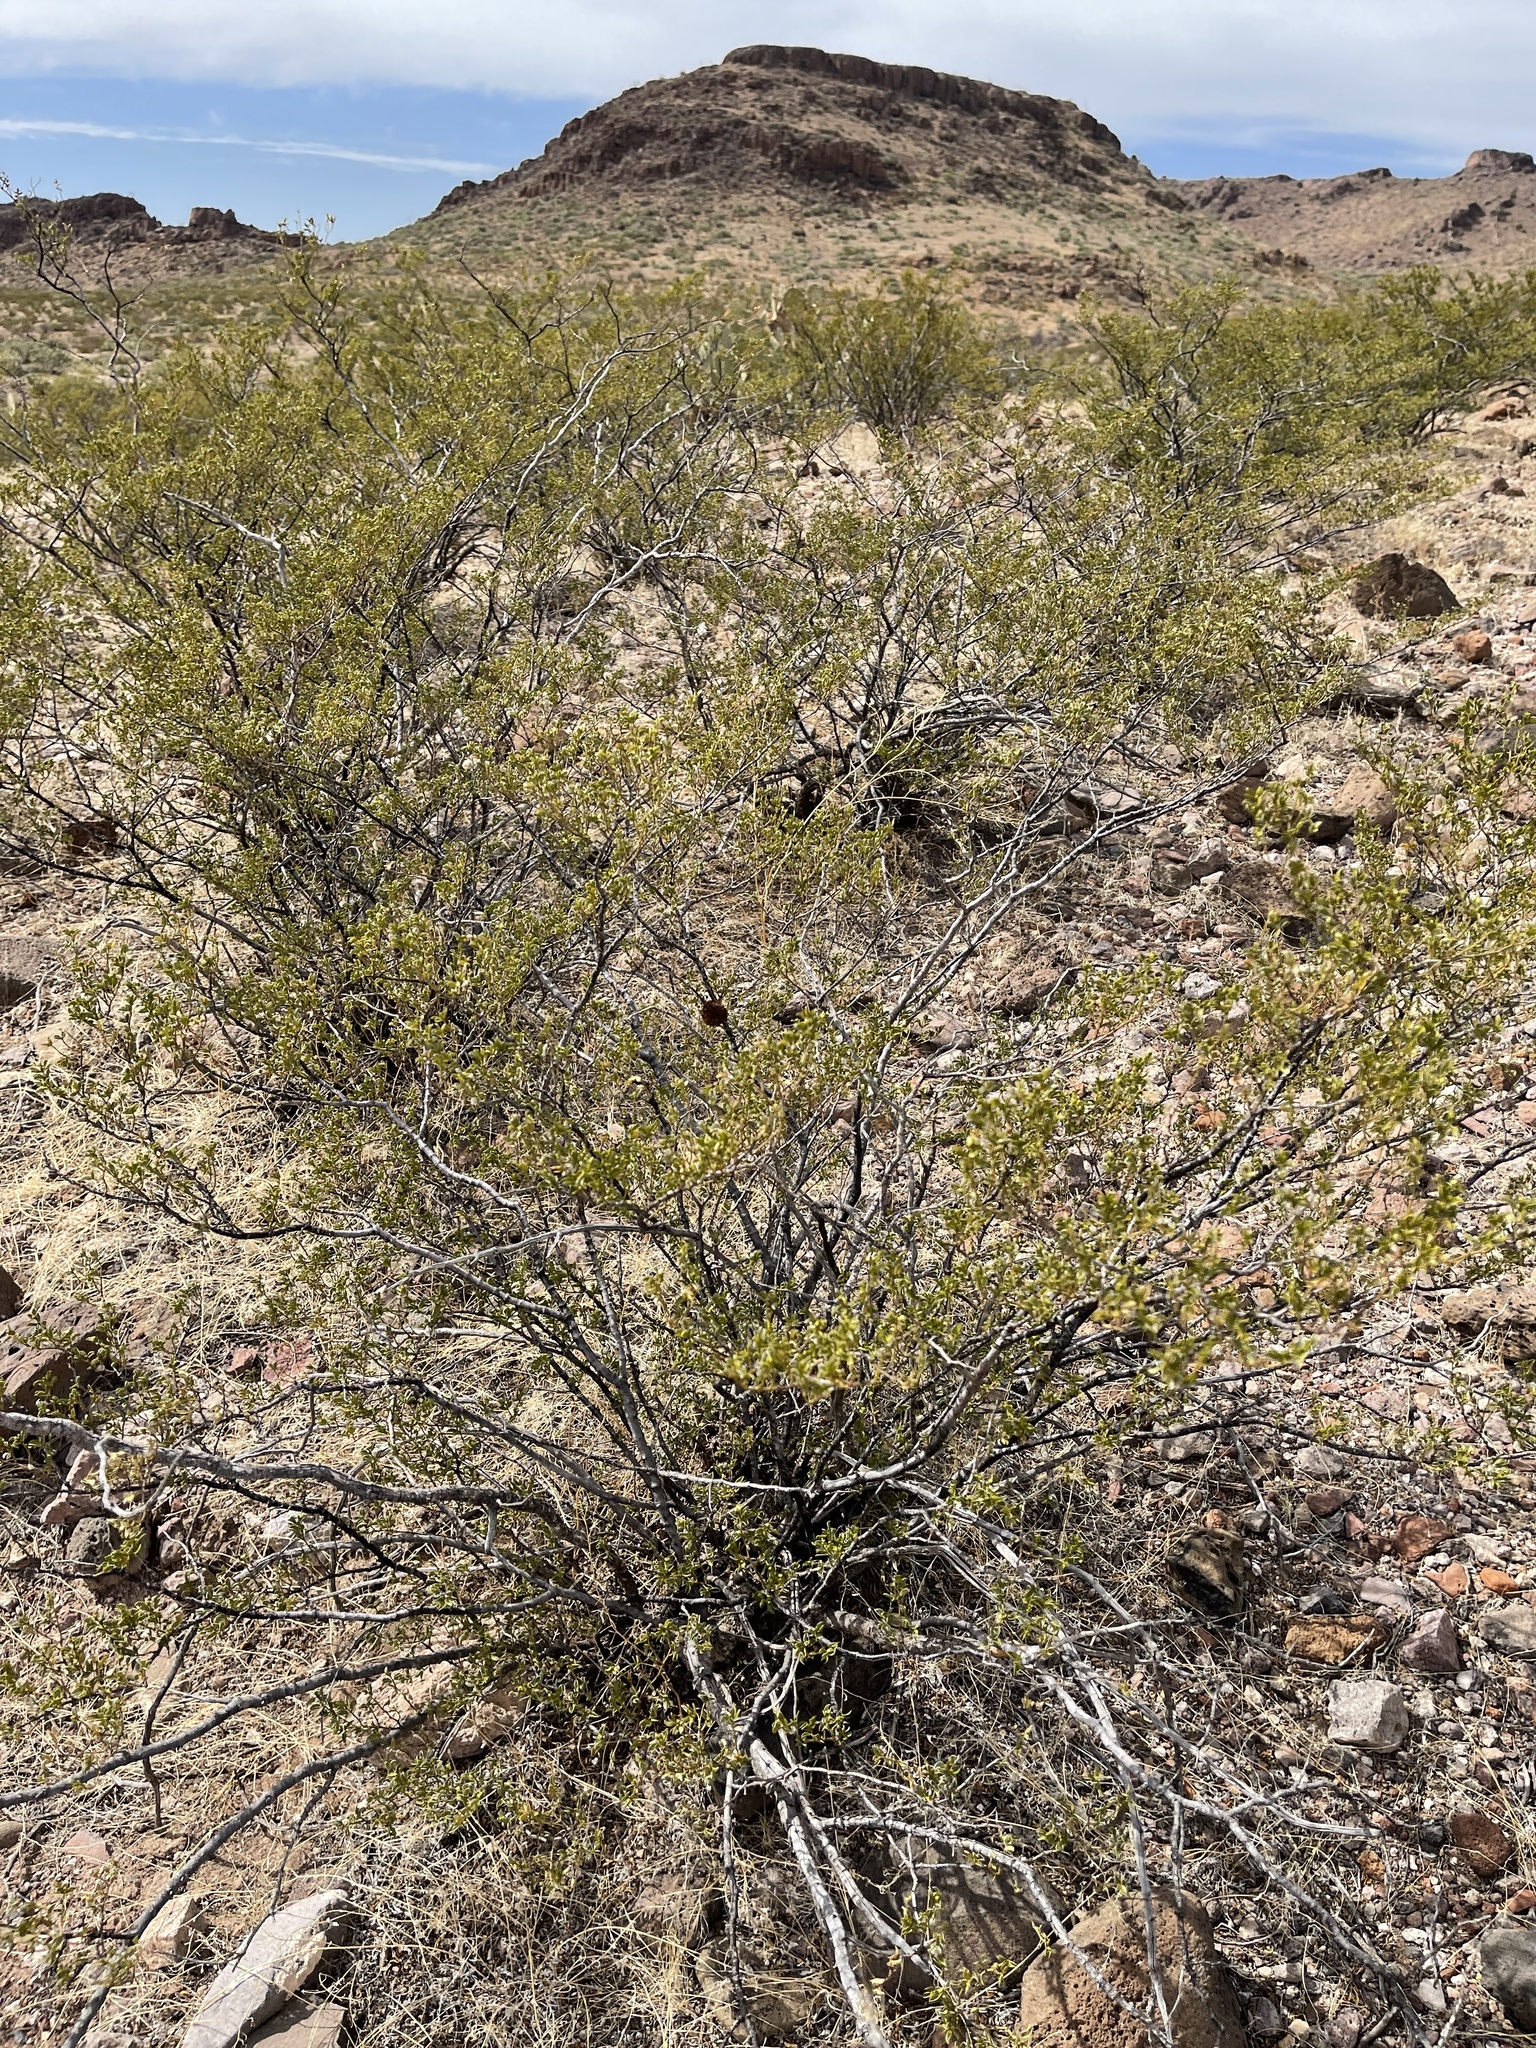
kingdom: Plantae
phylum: Tracheophyta
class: Magnoliopsida
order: Zygophyllales
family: Zygophyllaceae
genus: Larrea
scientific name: Larrea tridentata
